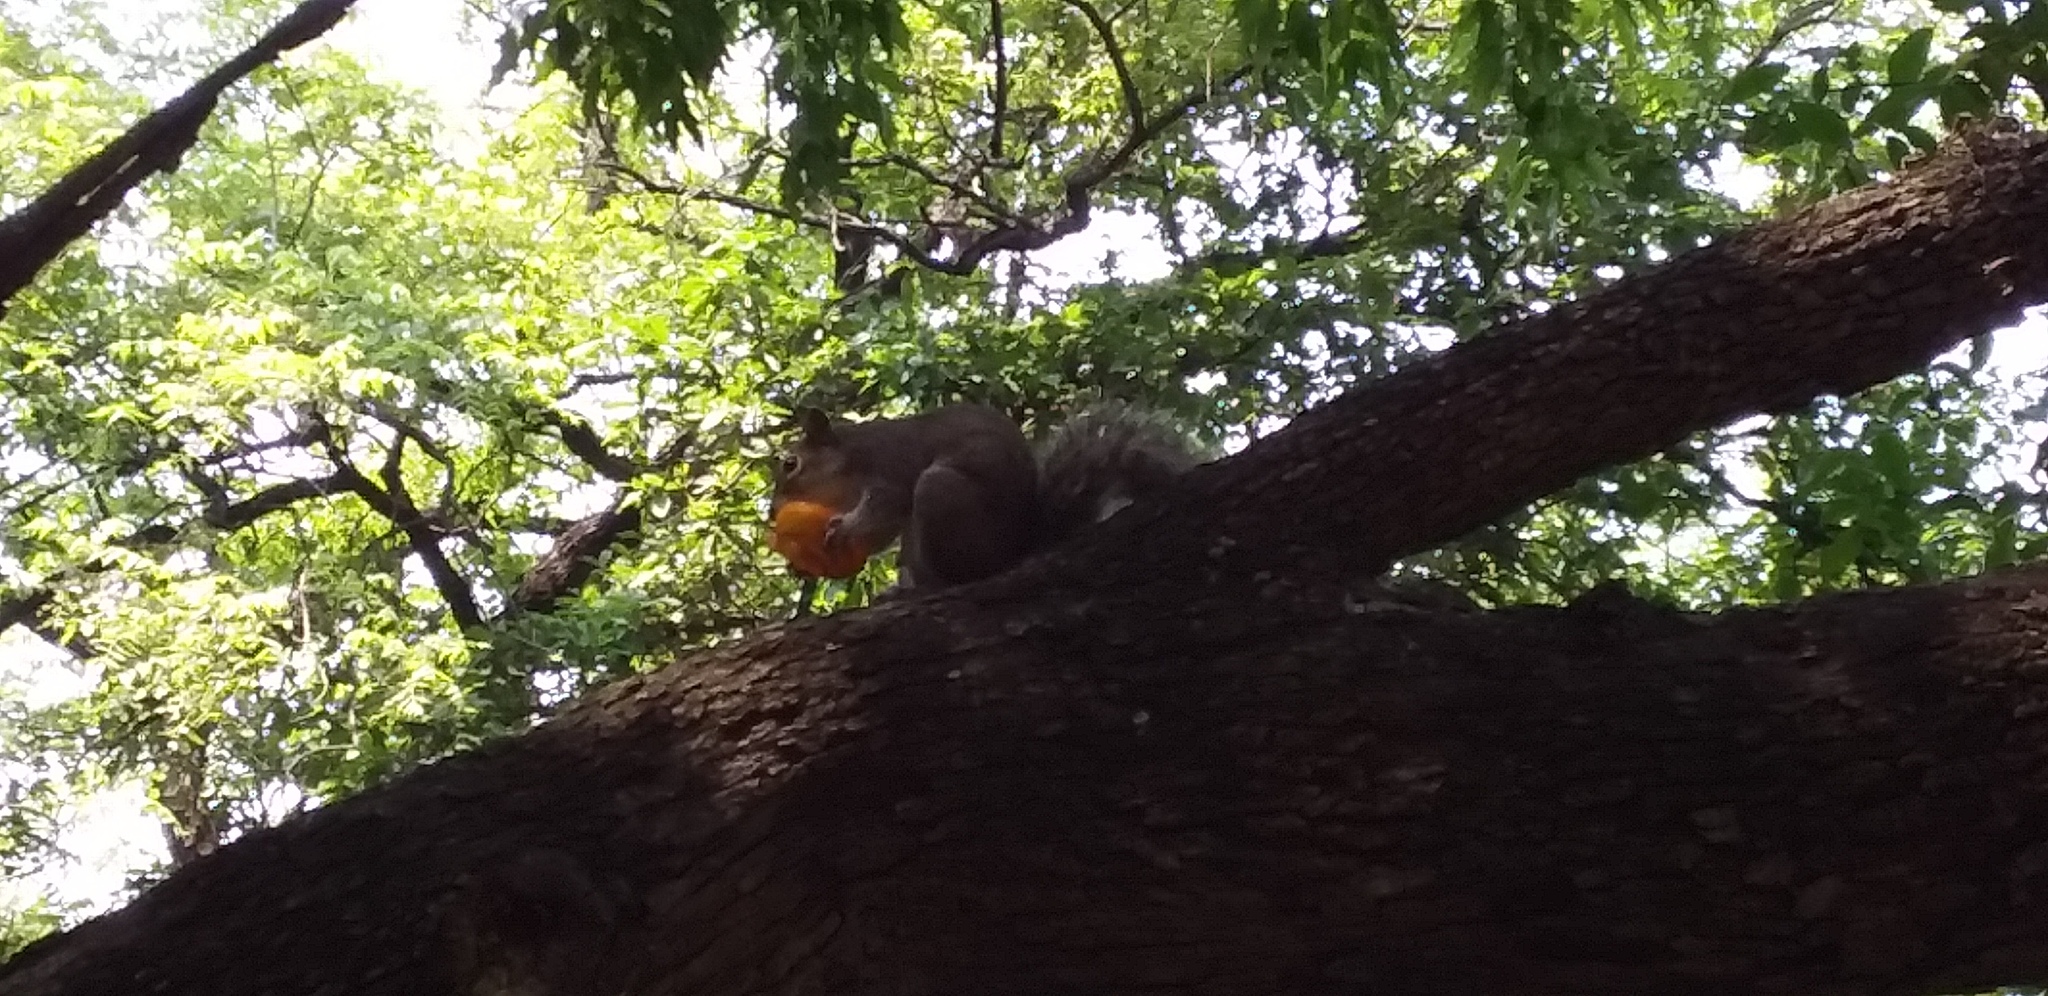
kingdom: Animalia
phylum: Chordata
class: Mammalia
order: Rodentia
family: Sciuridae
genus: Sciurus
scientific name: Sciurus alleni
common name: Allen's squirrel
